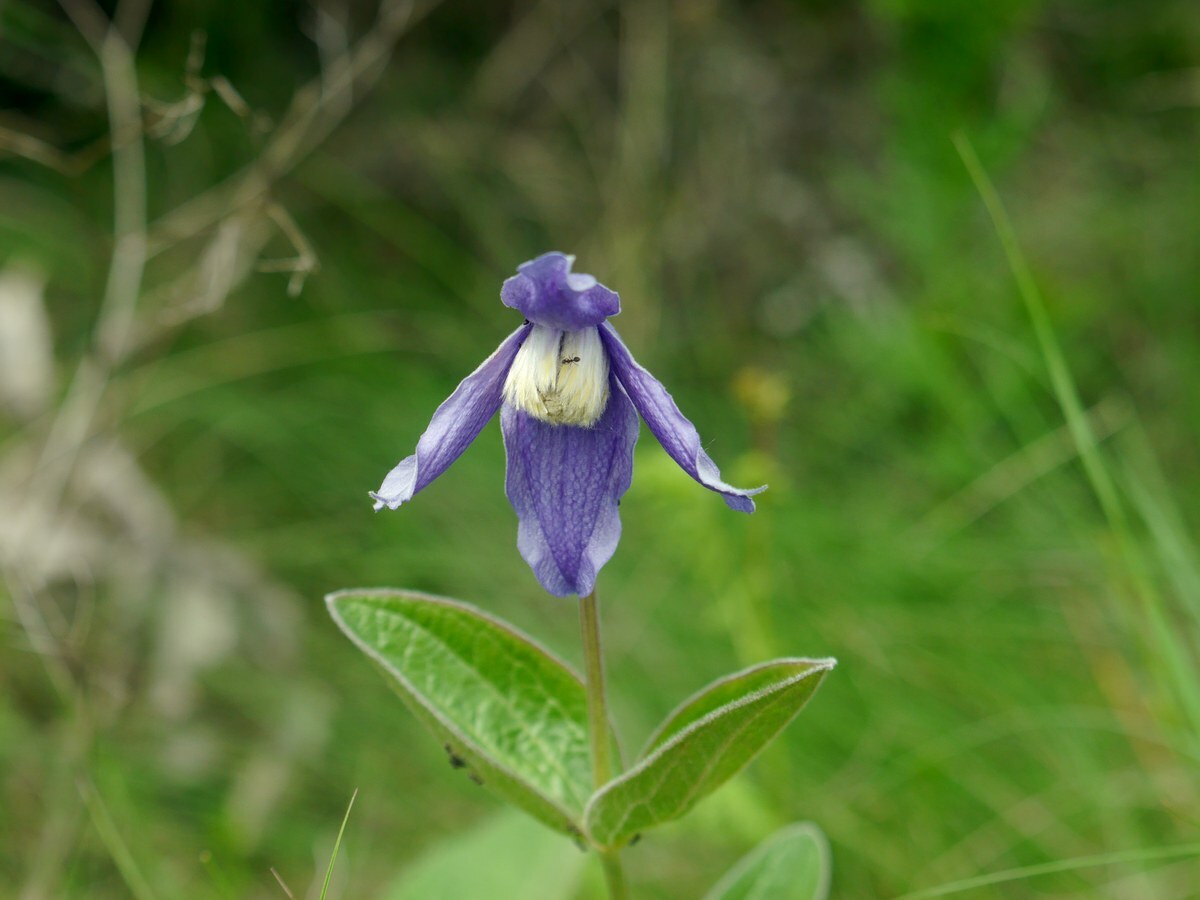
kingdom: Plantae
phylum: Tracheophyta
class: Magnoliopsida
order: Ranunculales
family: Ranunculaceae
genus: Clematis
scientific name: Clematis integrifolia
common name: Solitary clematis
